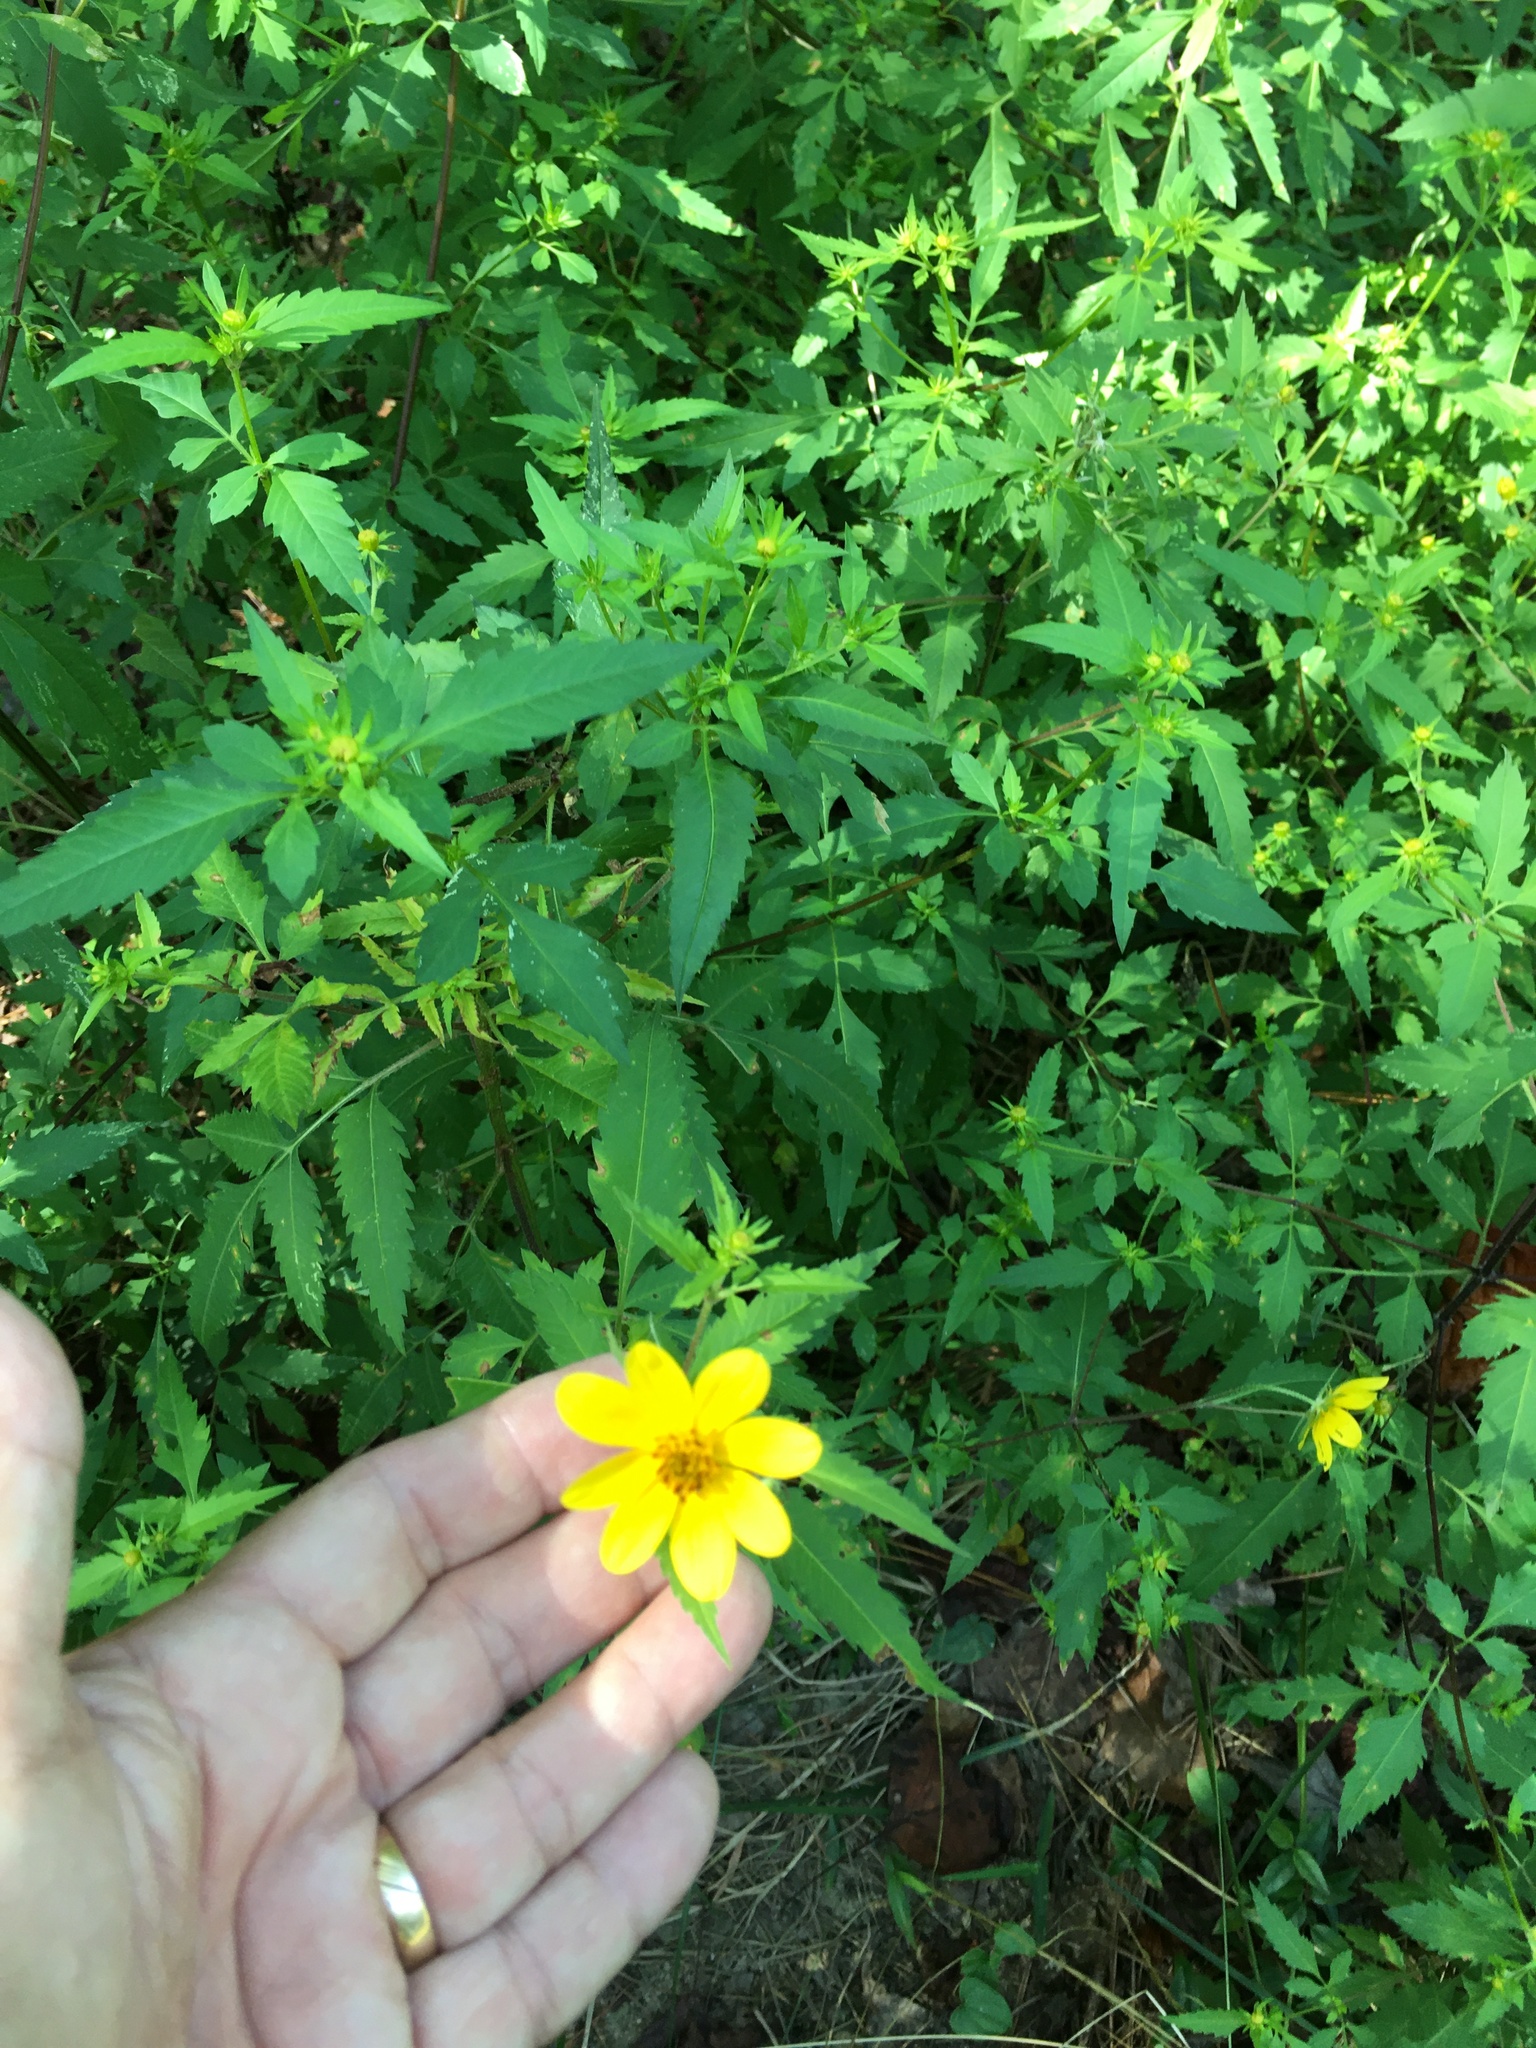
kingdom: Plantae
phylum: Tracheophyta
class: Magnoliopsida
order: Asterales
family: Asteraceae
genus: Bidens
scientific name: Bidens aristosa
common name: Western tickseed
